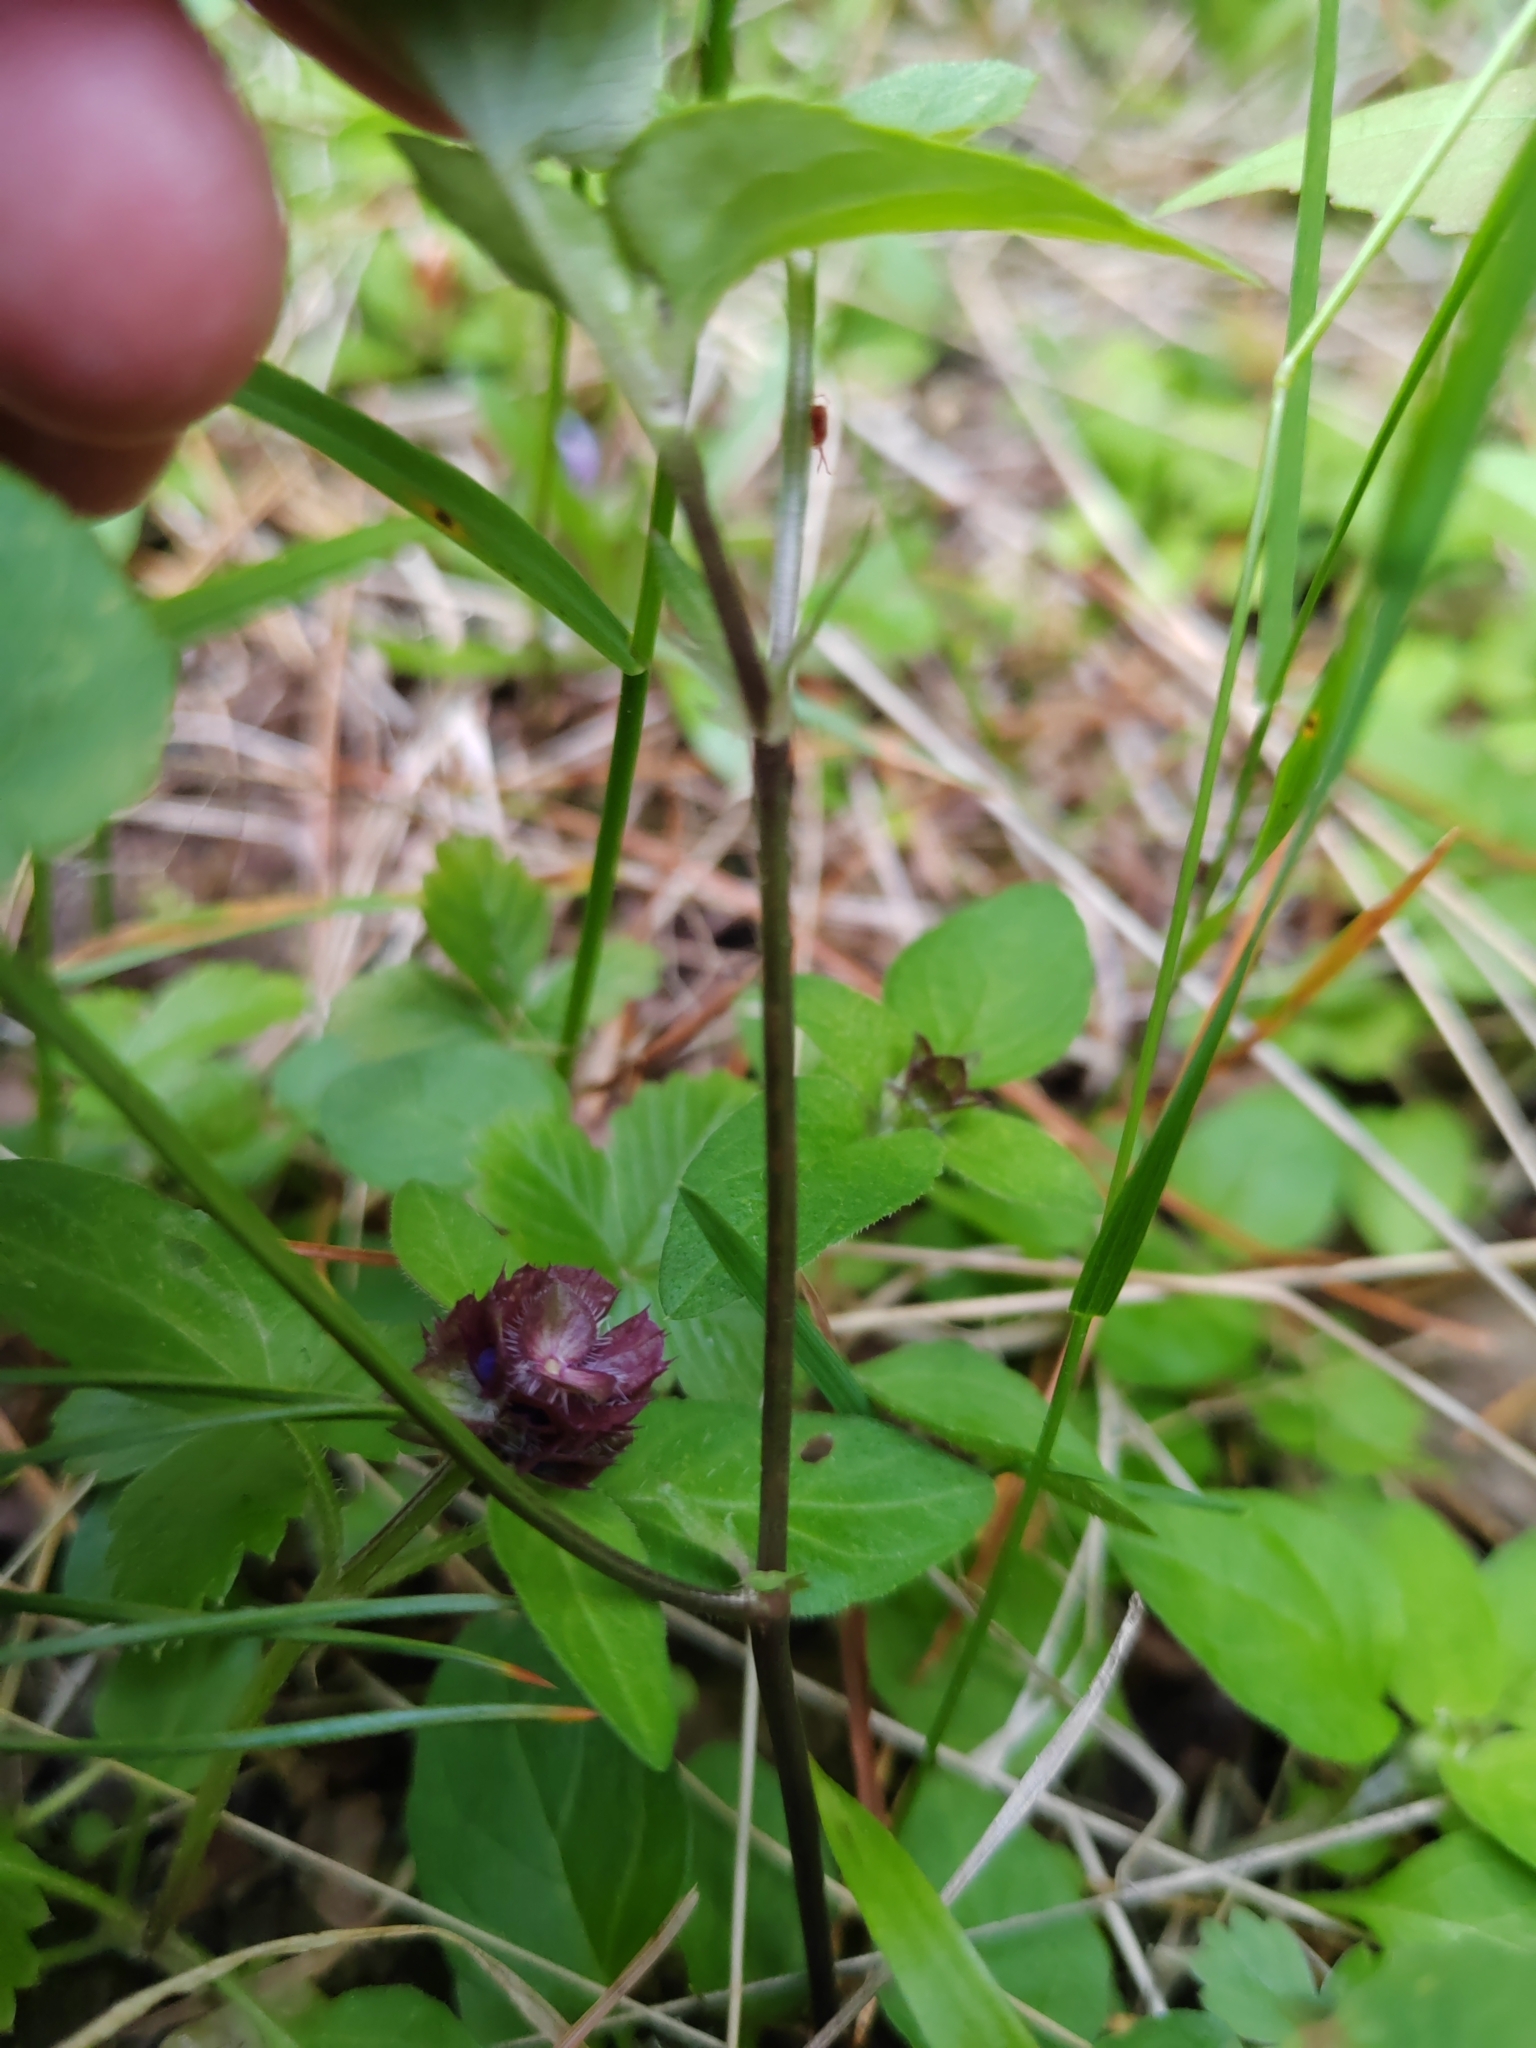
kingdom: Plantae
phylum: Tracheophyta
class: Magnoliopsida
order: Lamiales
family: Lamiaceae
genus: Prunella
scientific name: Prunella vulgaris
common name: Heal-all
